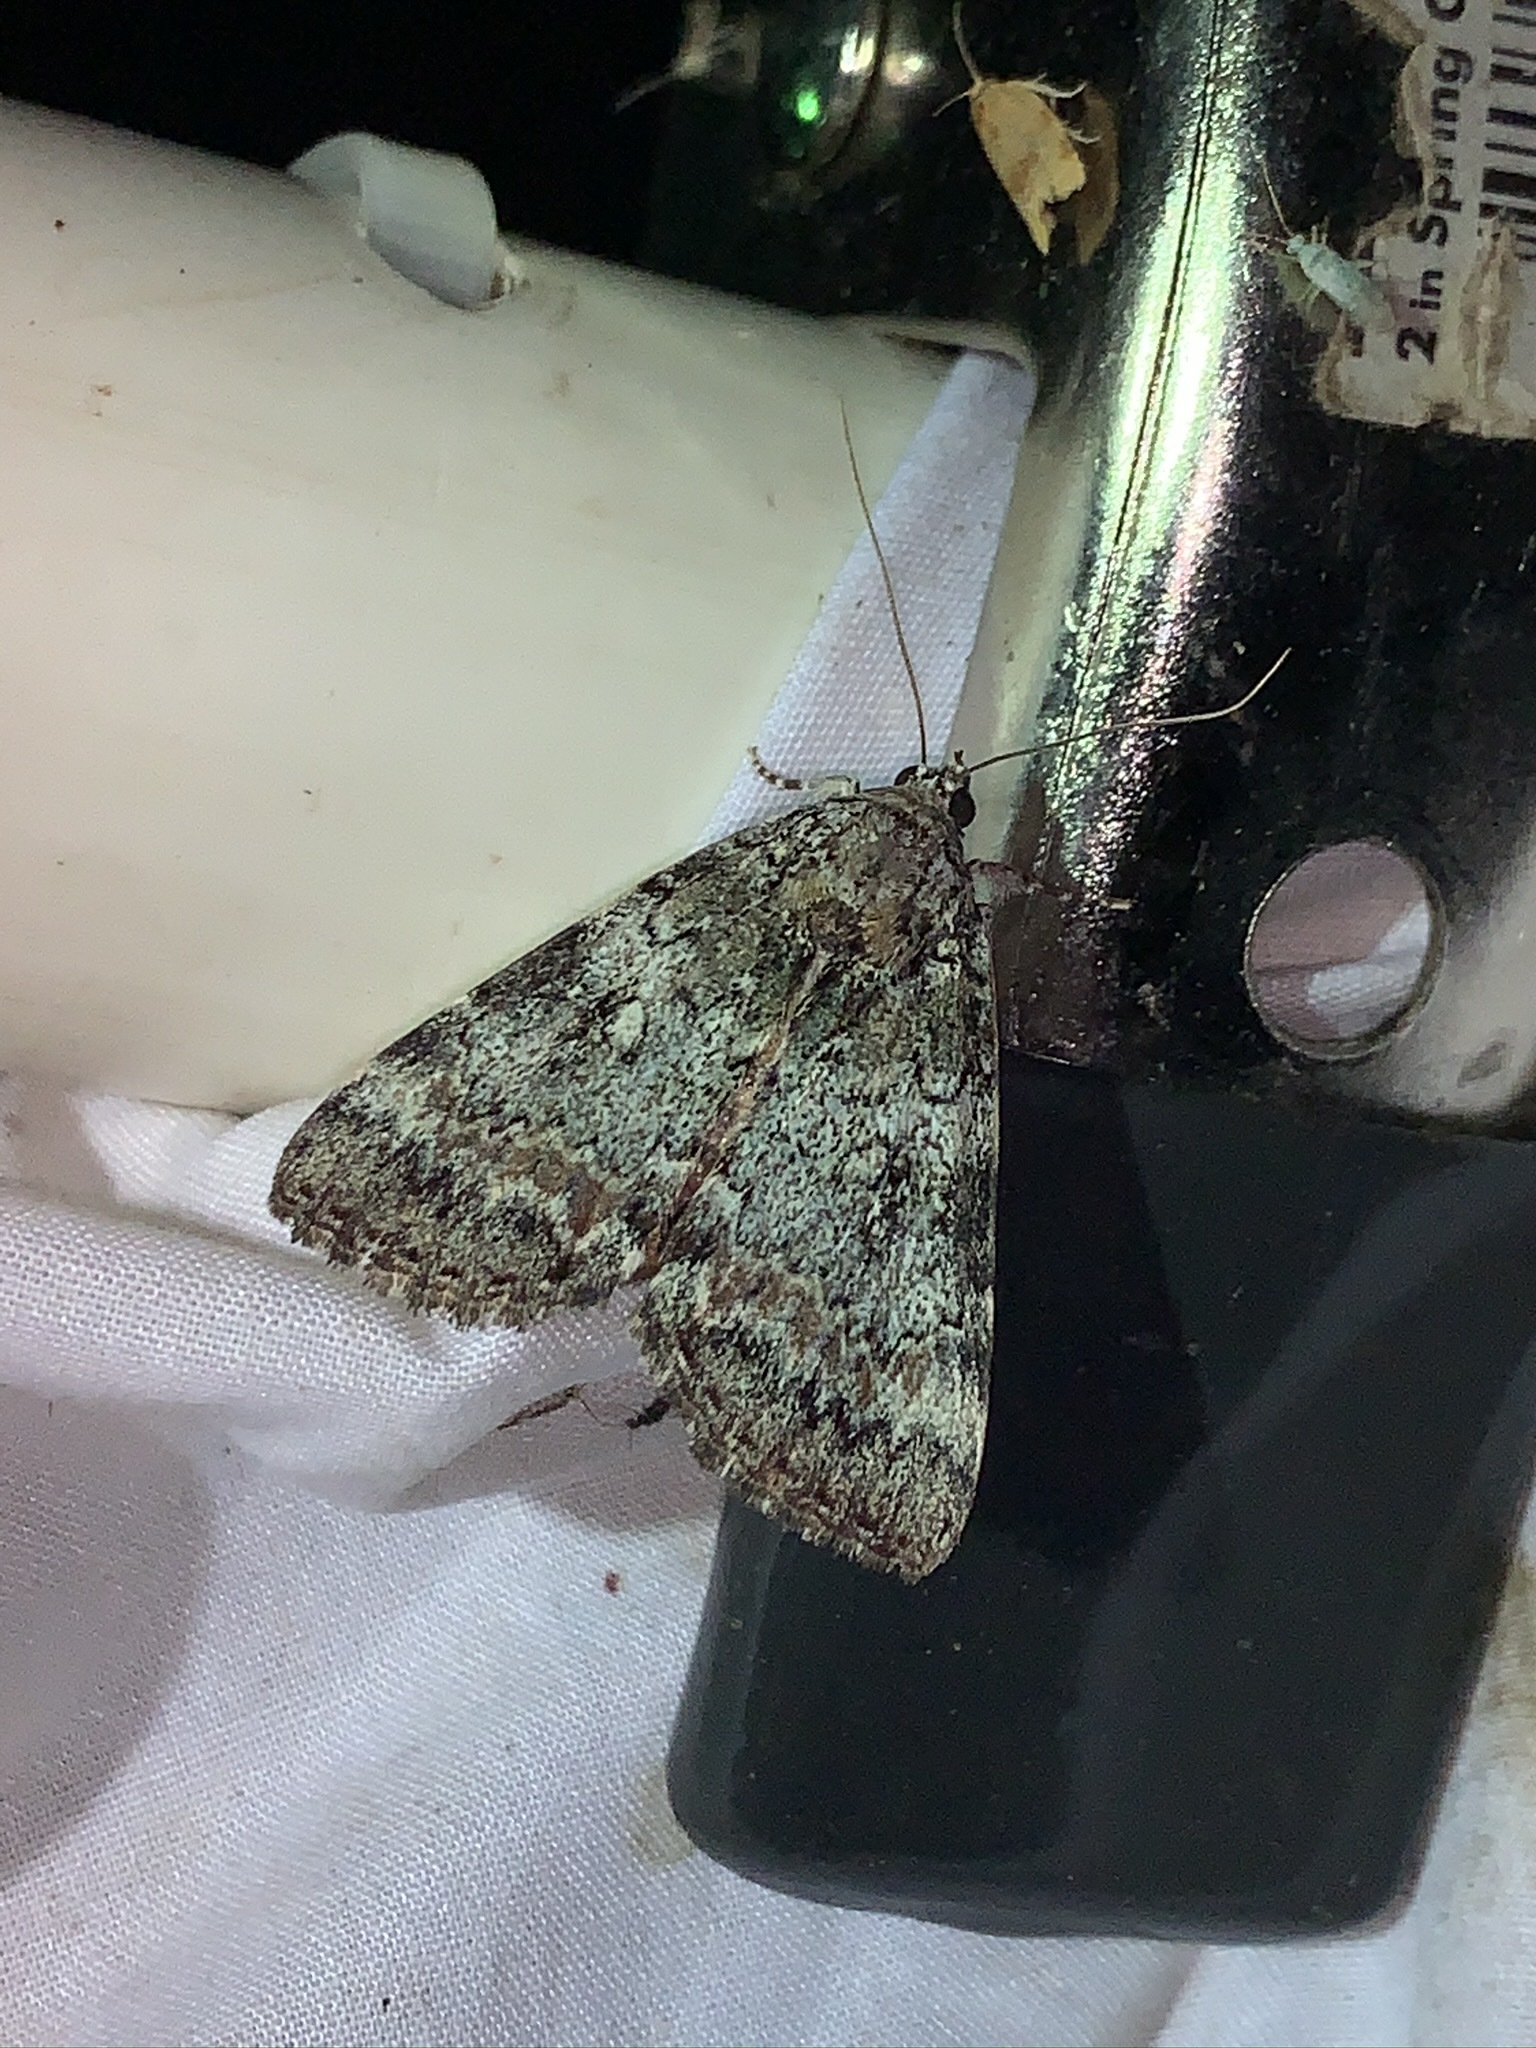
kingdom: Animalia
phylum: Arthropoda
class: Insecta
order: Lepidoptera
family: Erebidae
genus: Catocala
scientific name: Catocala connubialis
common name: Connubial underwing
